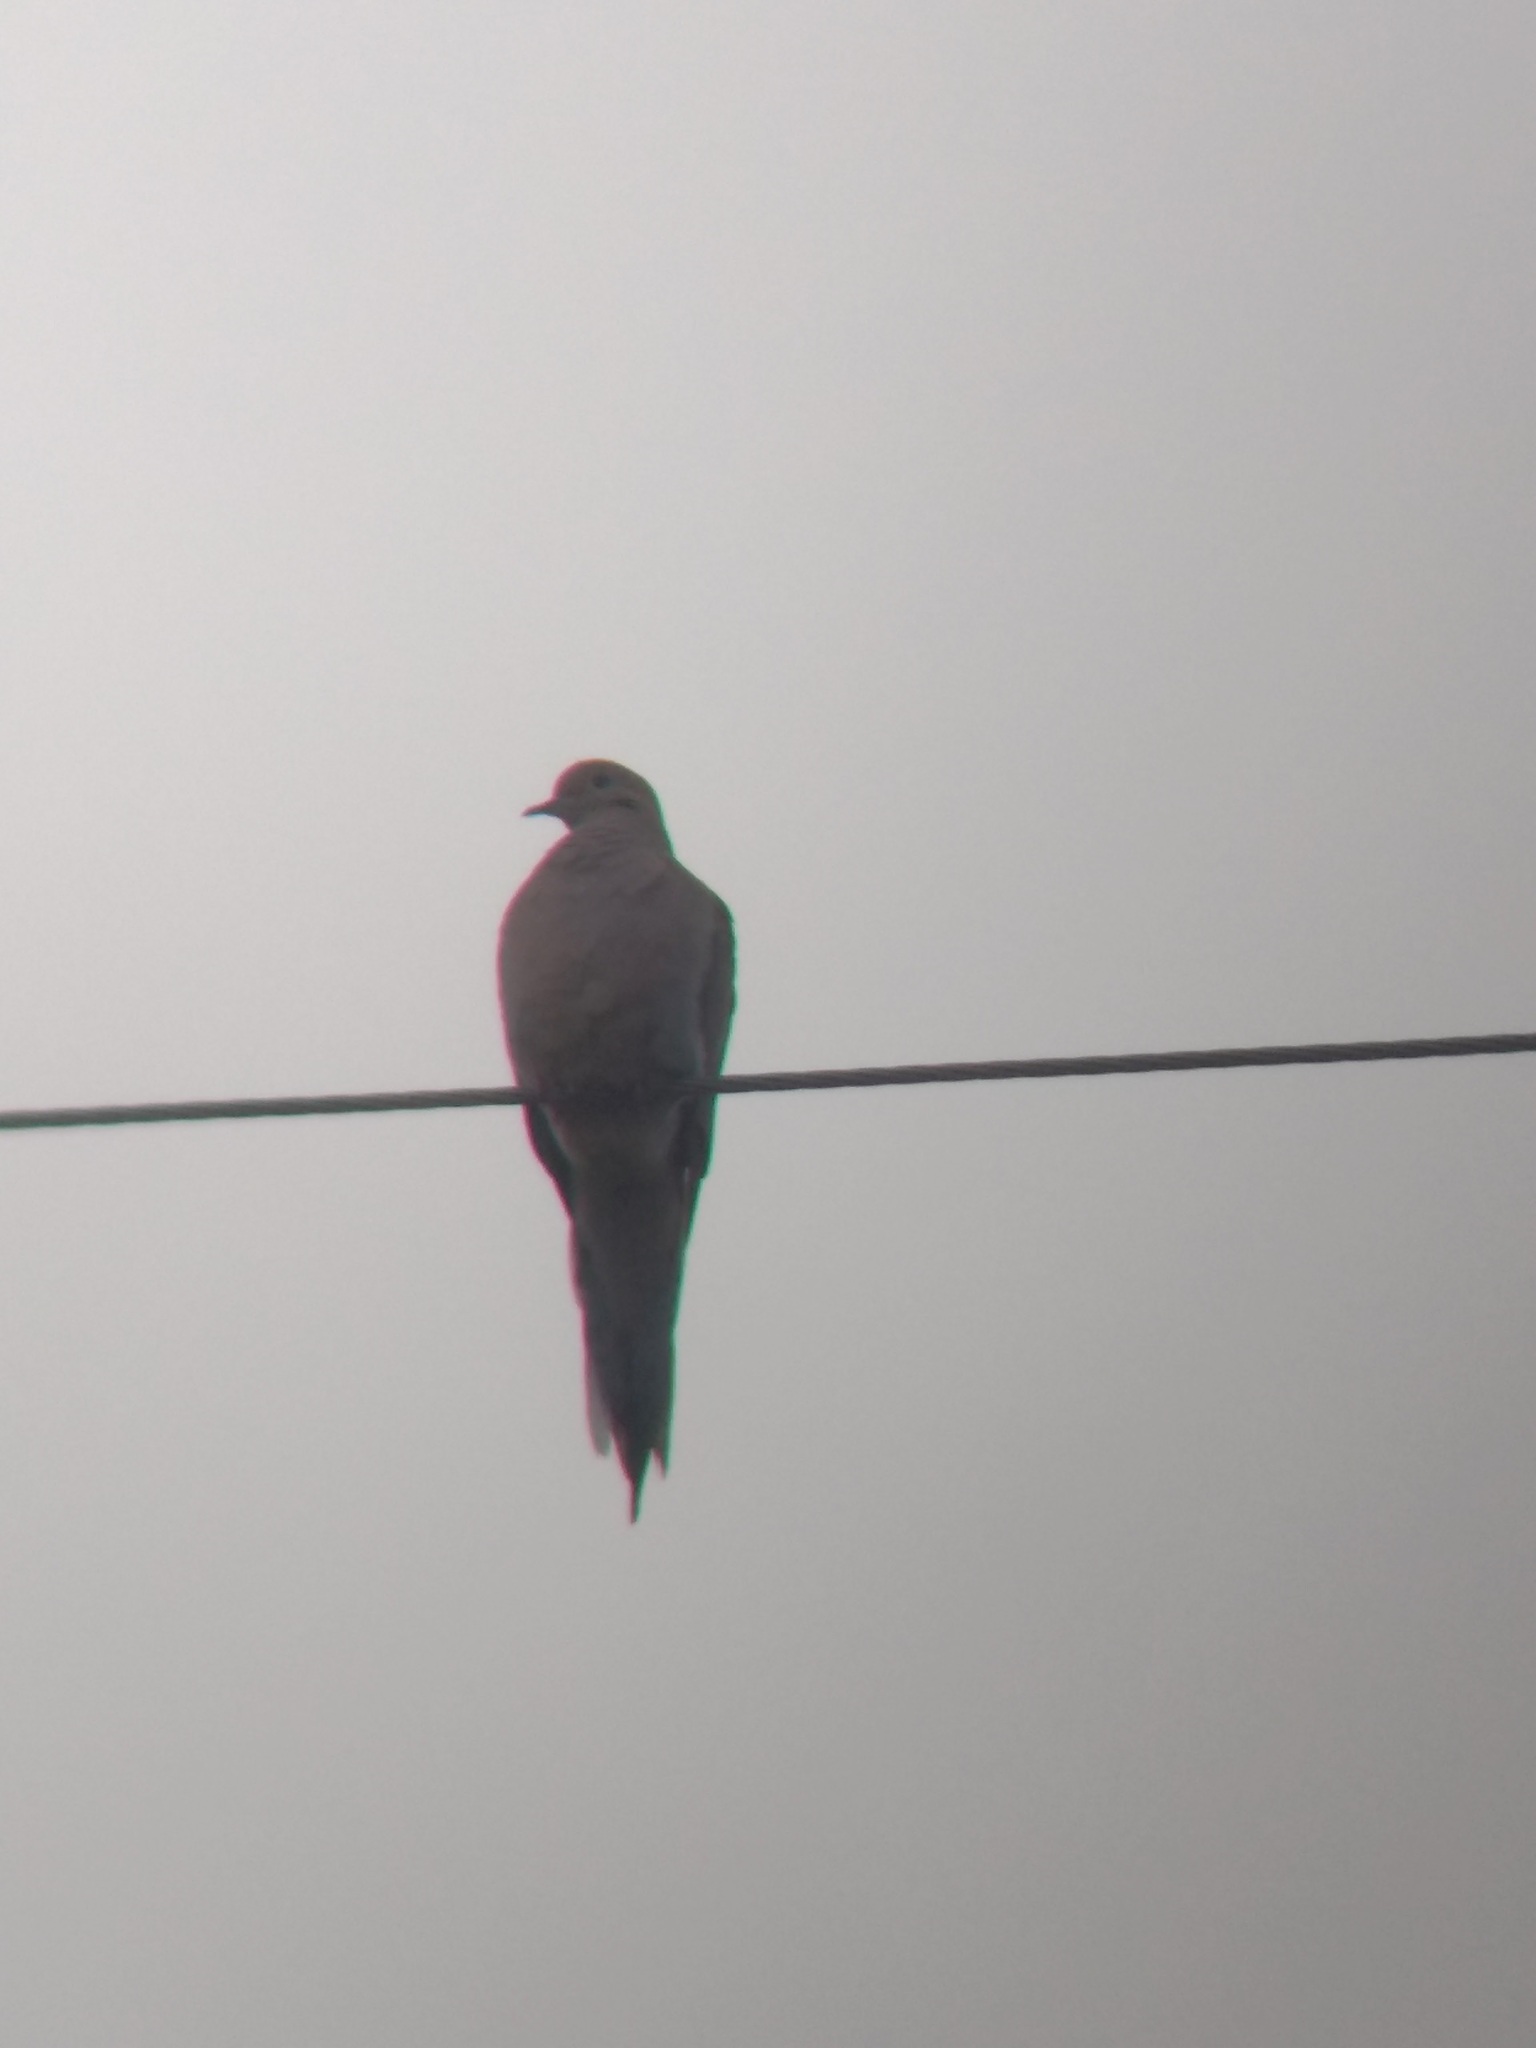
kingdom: Animalia
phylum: Chordata
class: Aves
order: Columbiformes
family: Columbidae
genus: Zenaida
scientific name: Zenaida macroura
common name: Mourning dove
